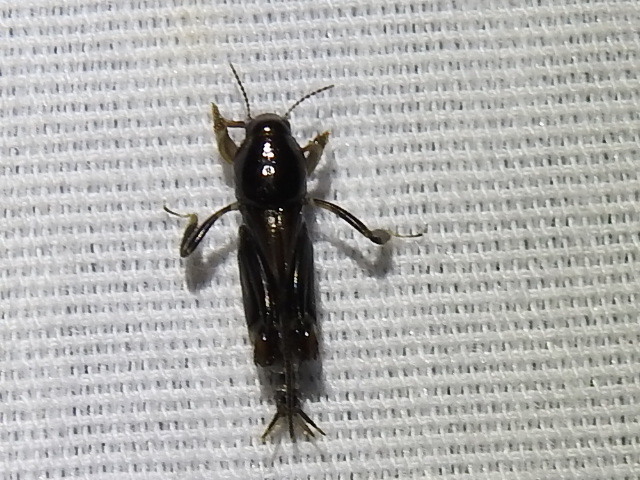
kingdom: Animalia
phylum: Arthropoda
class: Insecta
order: Orthoptera
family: Tridactylidae
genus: Neotridactylus
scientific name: Neotridactylus apicialis
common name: Larger pygmy locust
